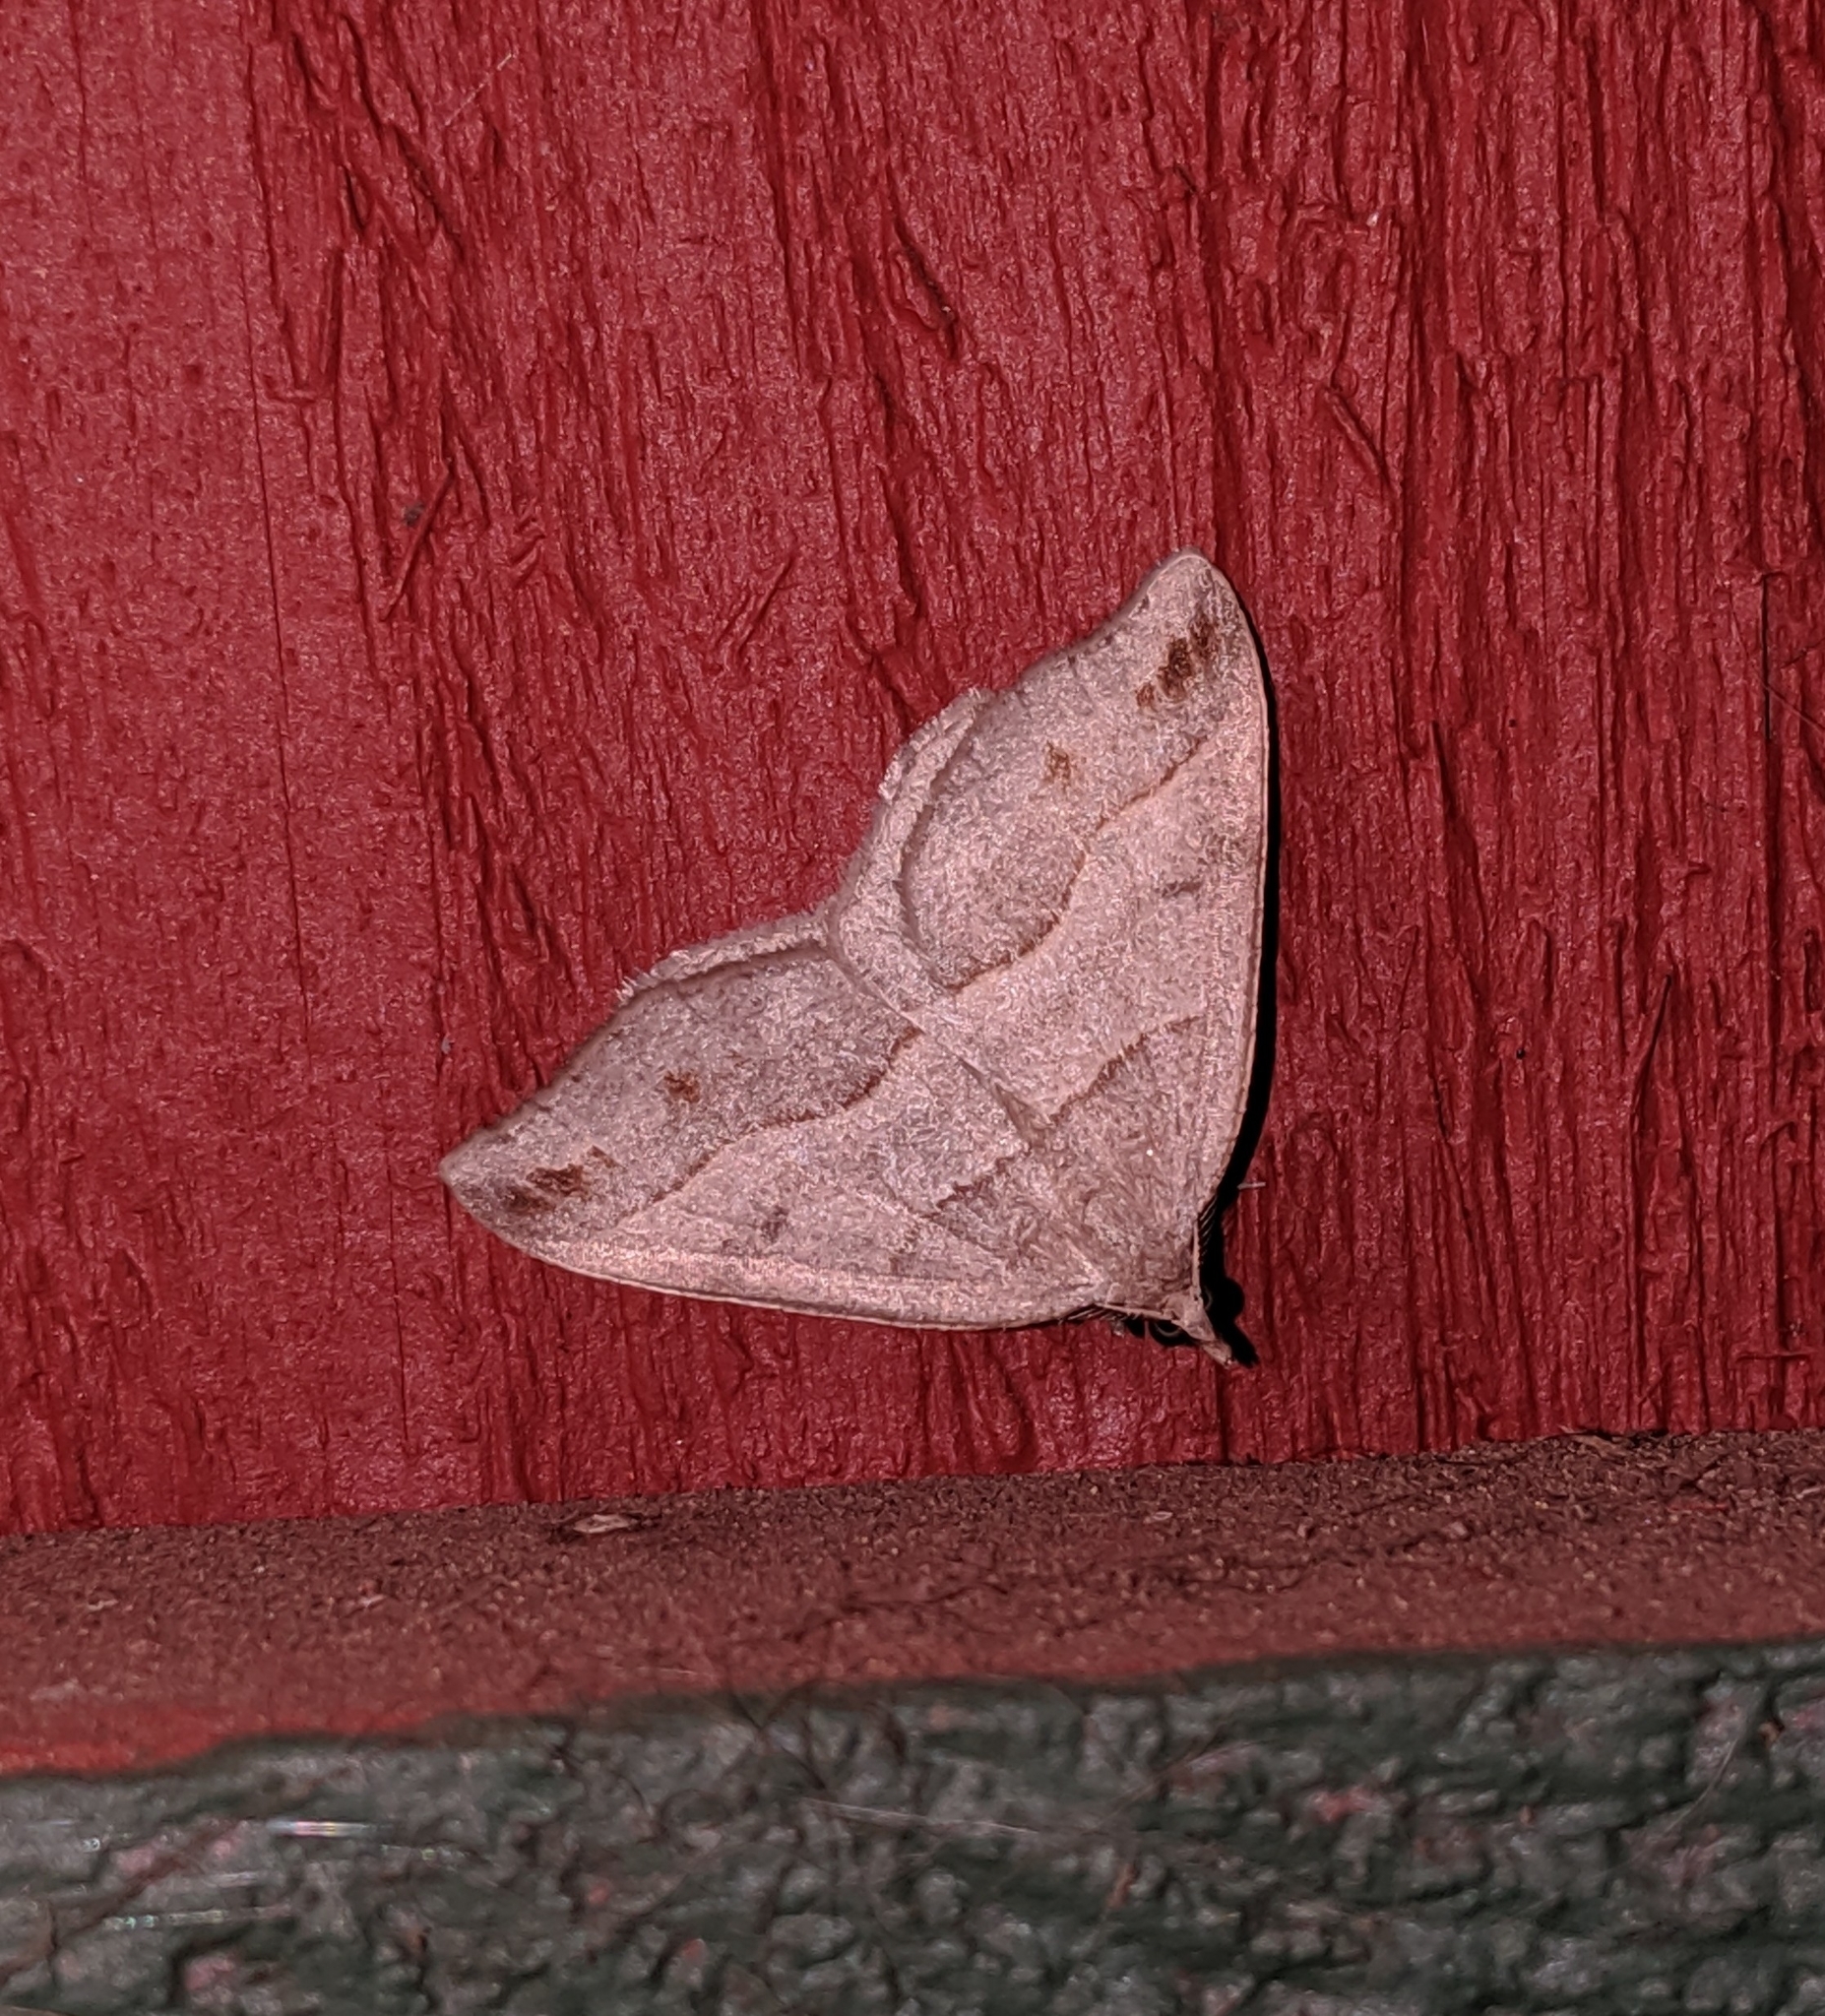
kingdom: Animalia
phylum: Arthropoda
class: Insecta
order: Lepidoptera
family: Geometridae
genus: Macaria
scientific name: Macaria lorquinaria
